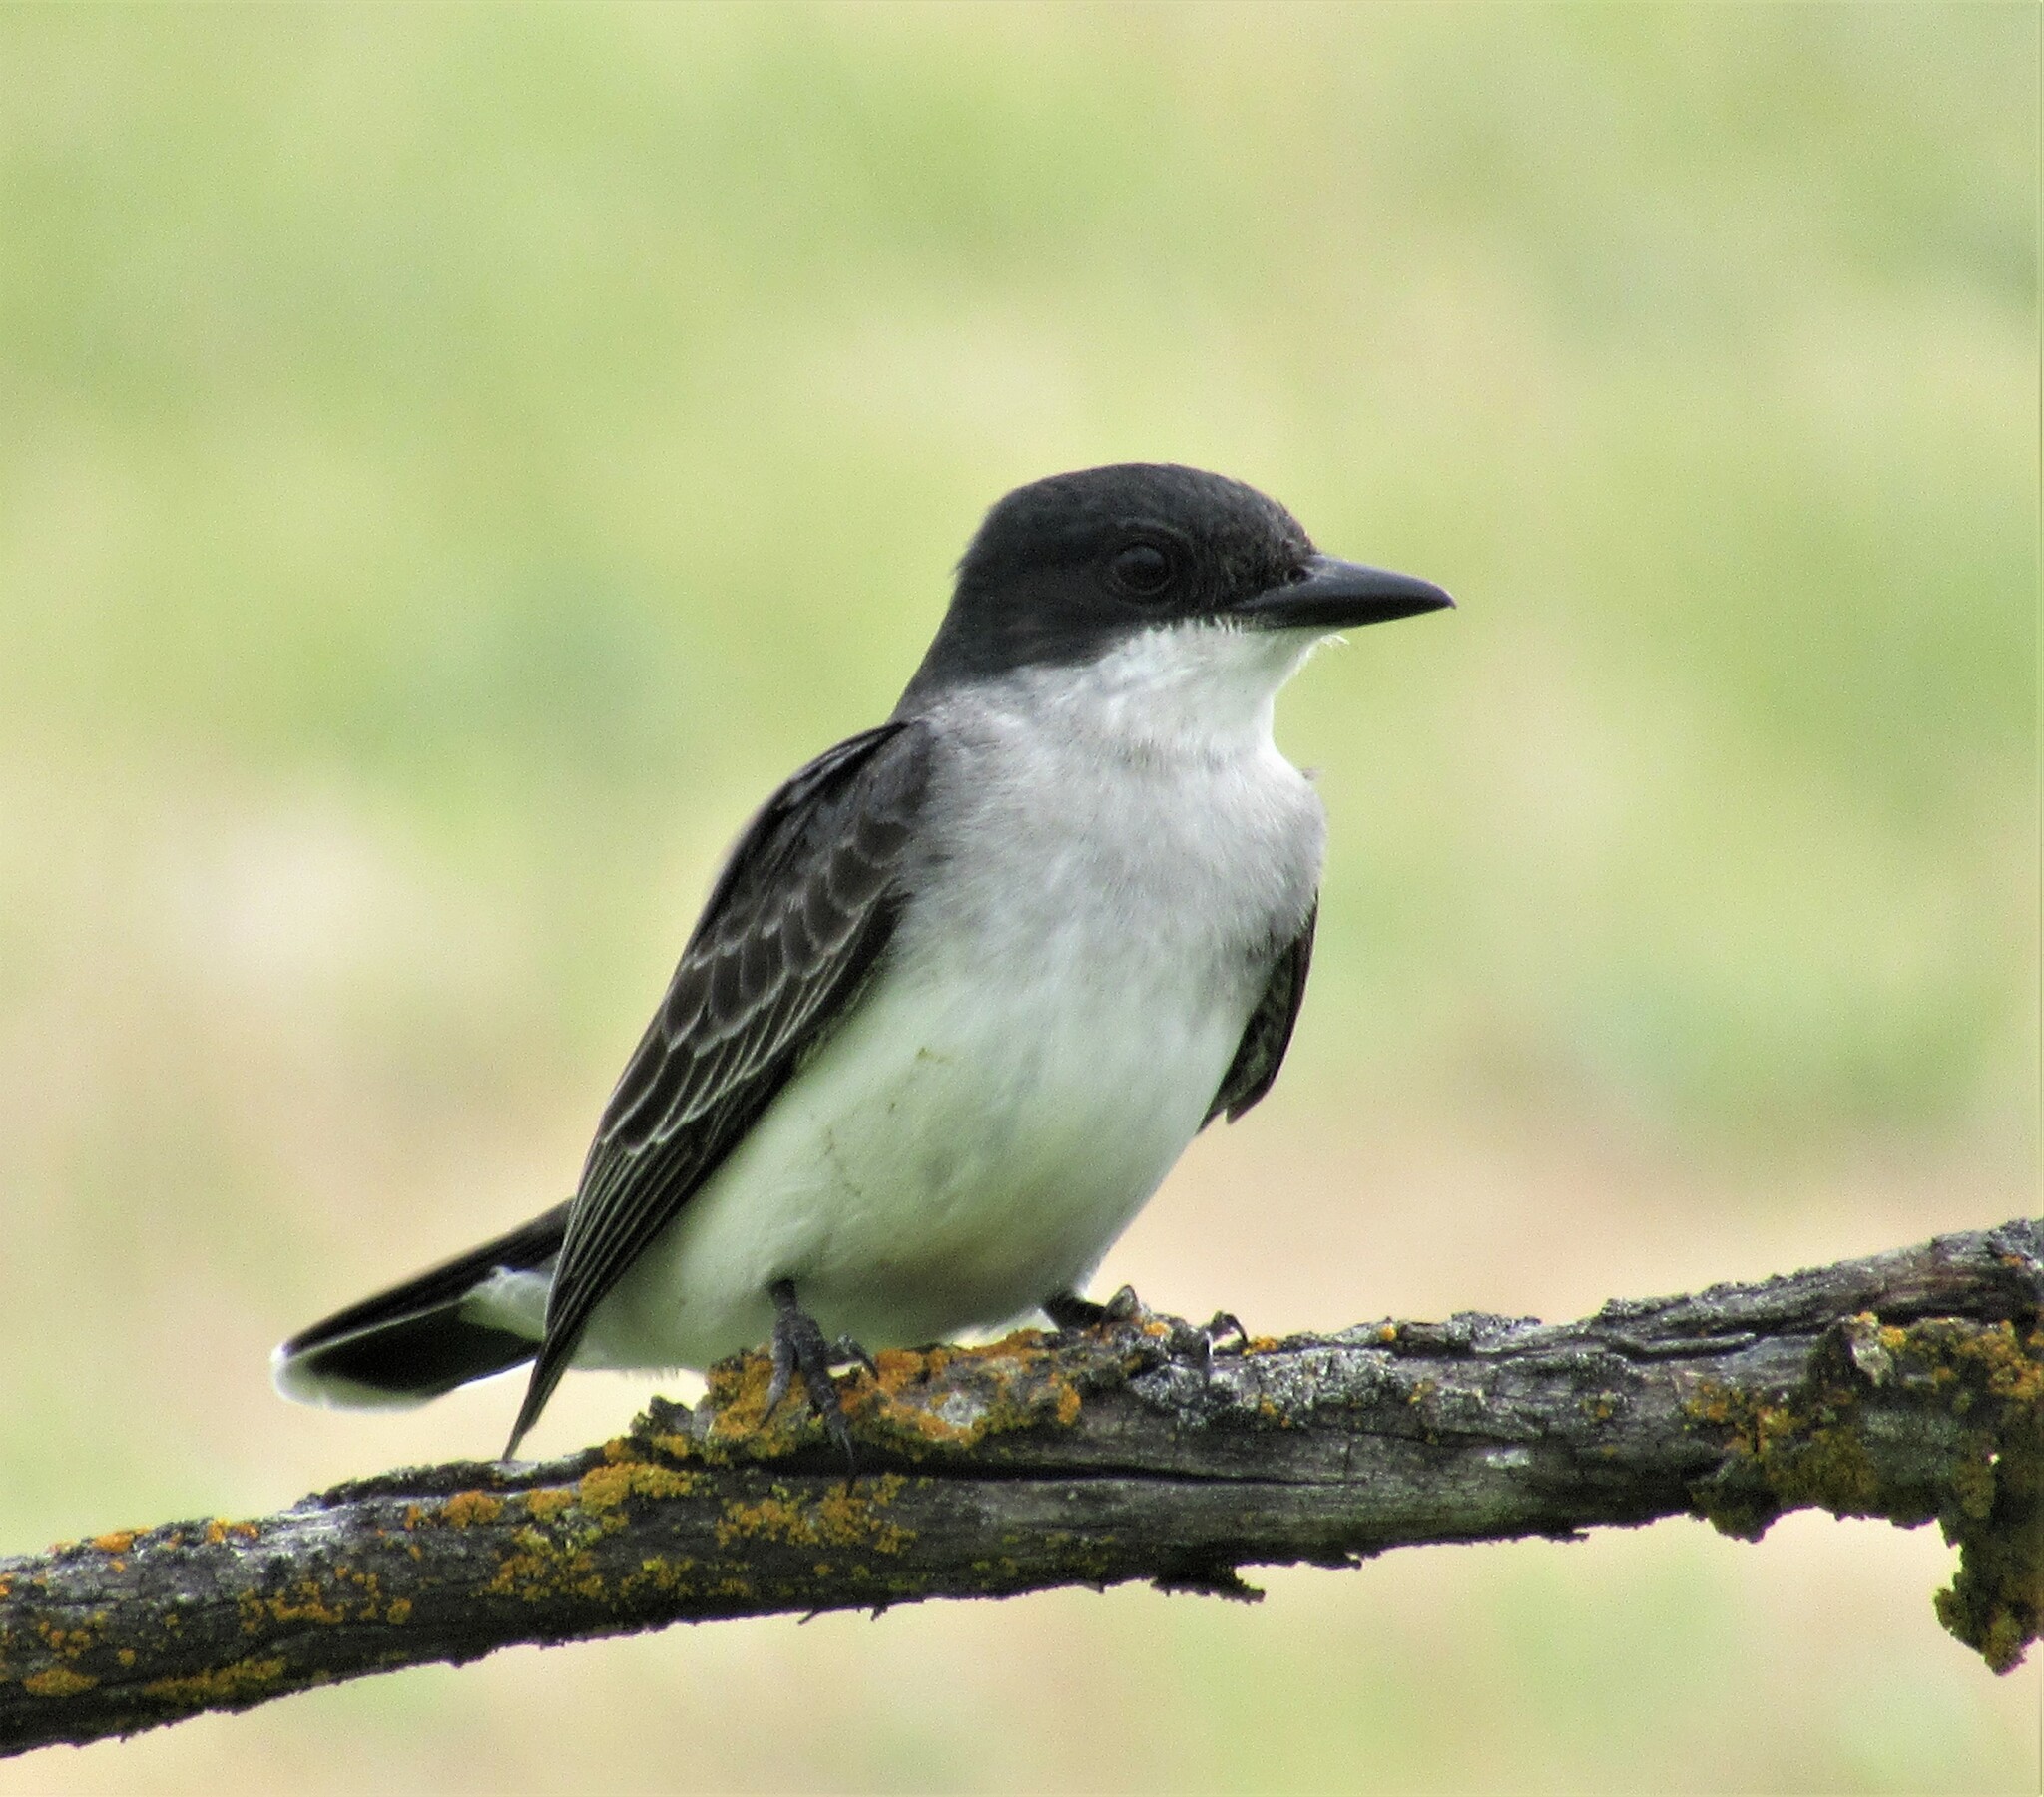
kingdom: Animalia
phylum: Chordata
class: Aves
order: Passeriformes
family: Tyrannidae
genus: Tyrannus
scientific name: Tyrannus tyrannus
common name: Eastern kingbird
